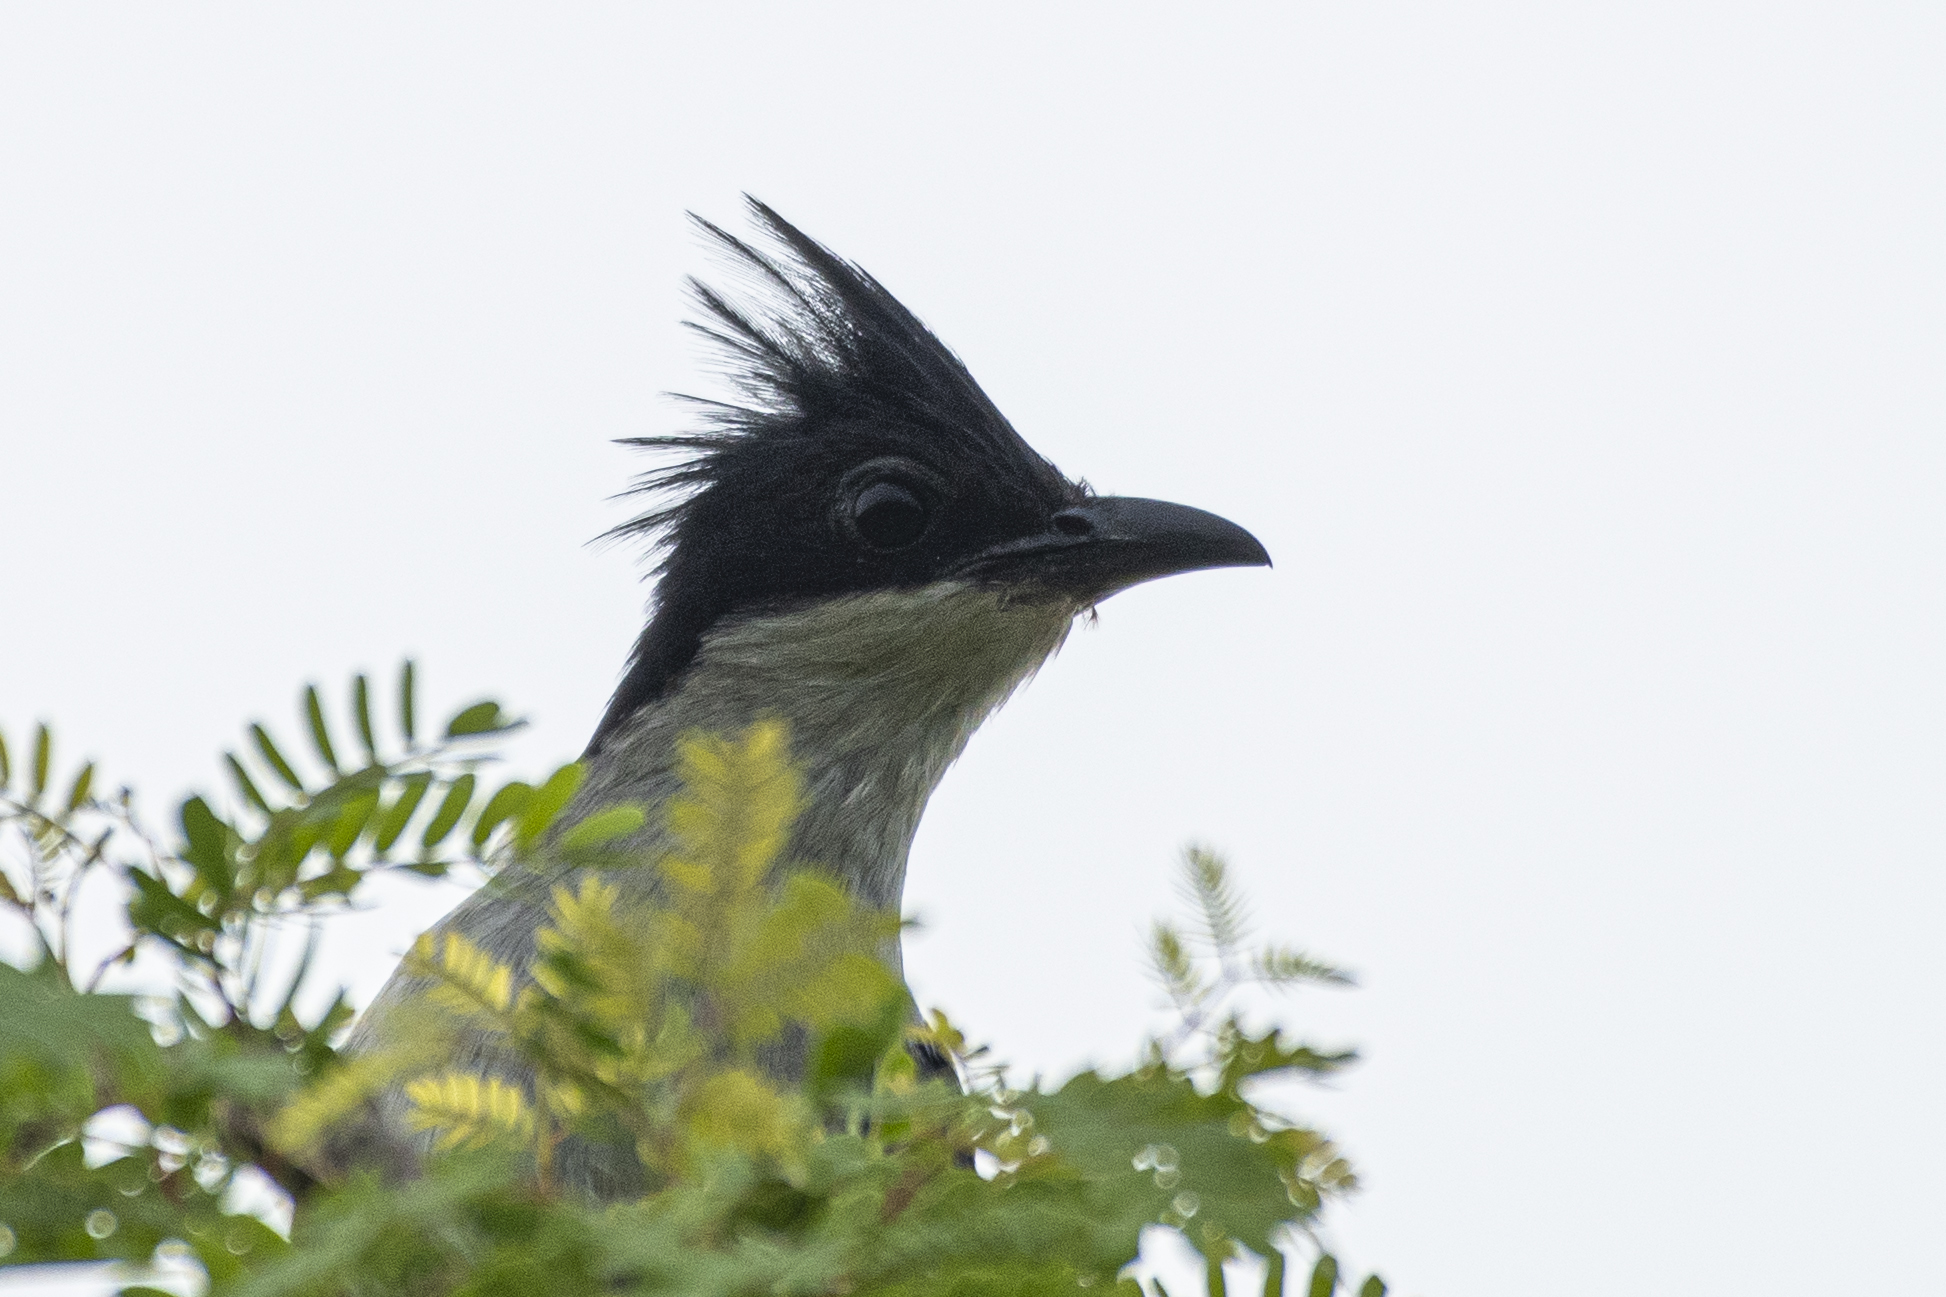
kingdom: Animalia
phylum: Chordata
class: Aves
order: Cuculiformes
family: Cuculidae
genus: Clamator
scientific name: Clamator jacobinus
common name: Jacobin cuckoo
